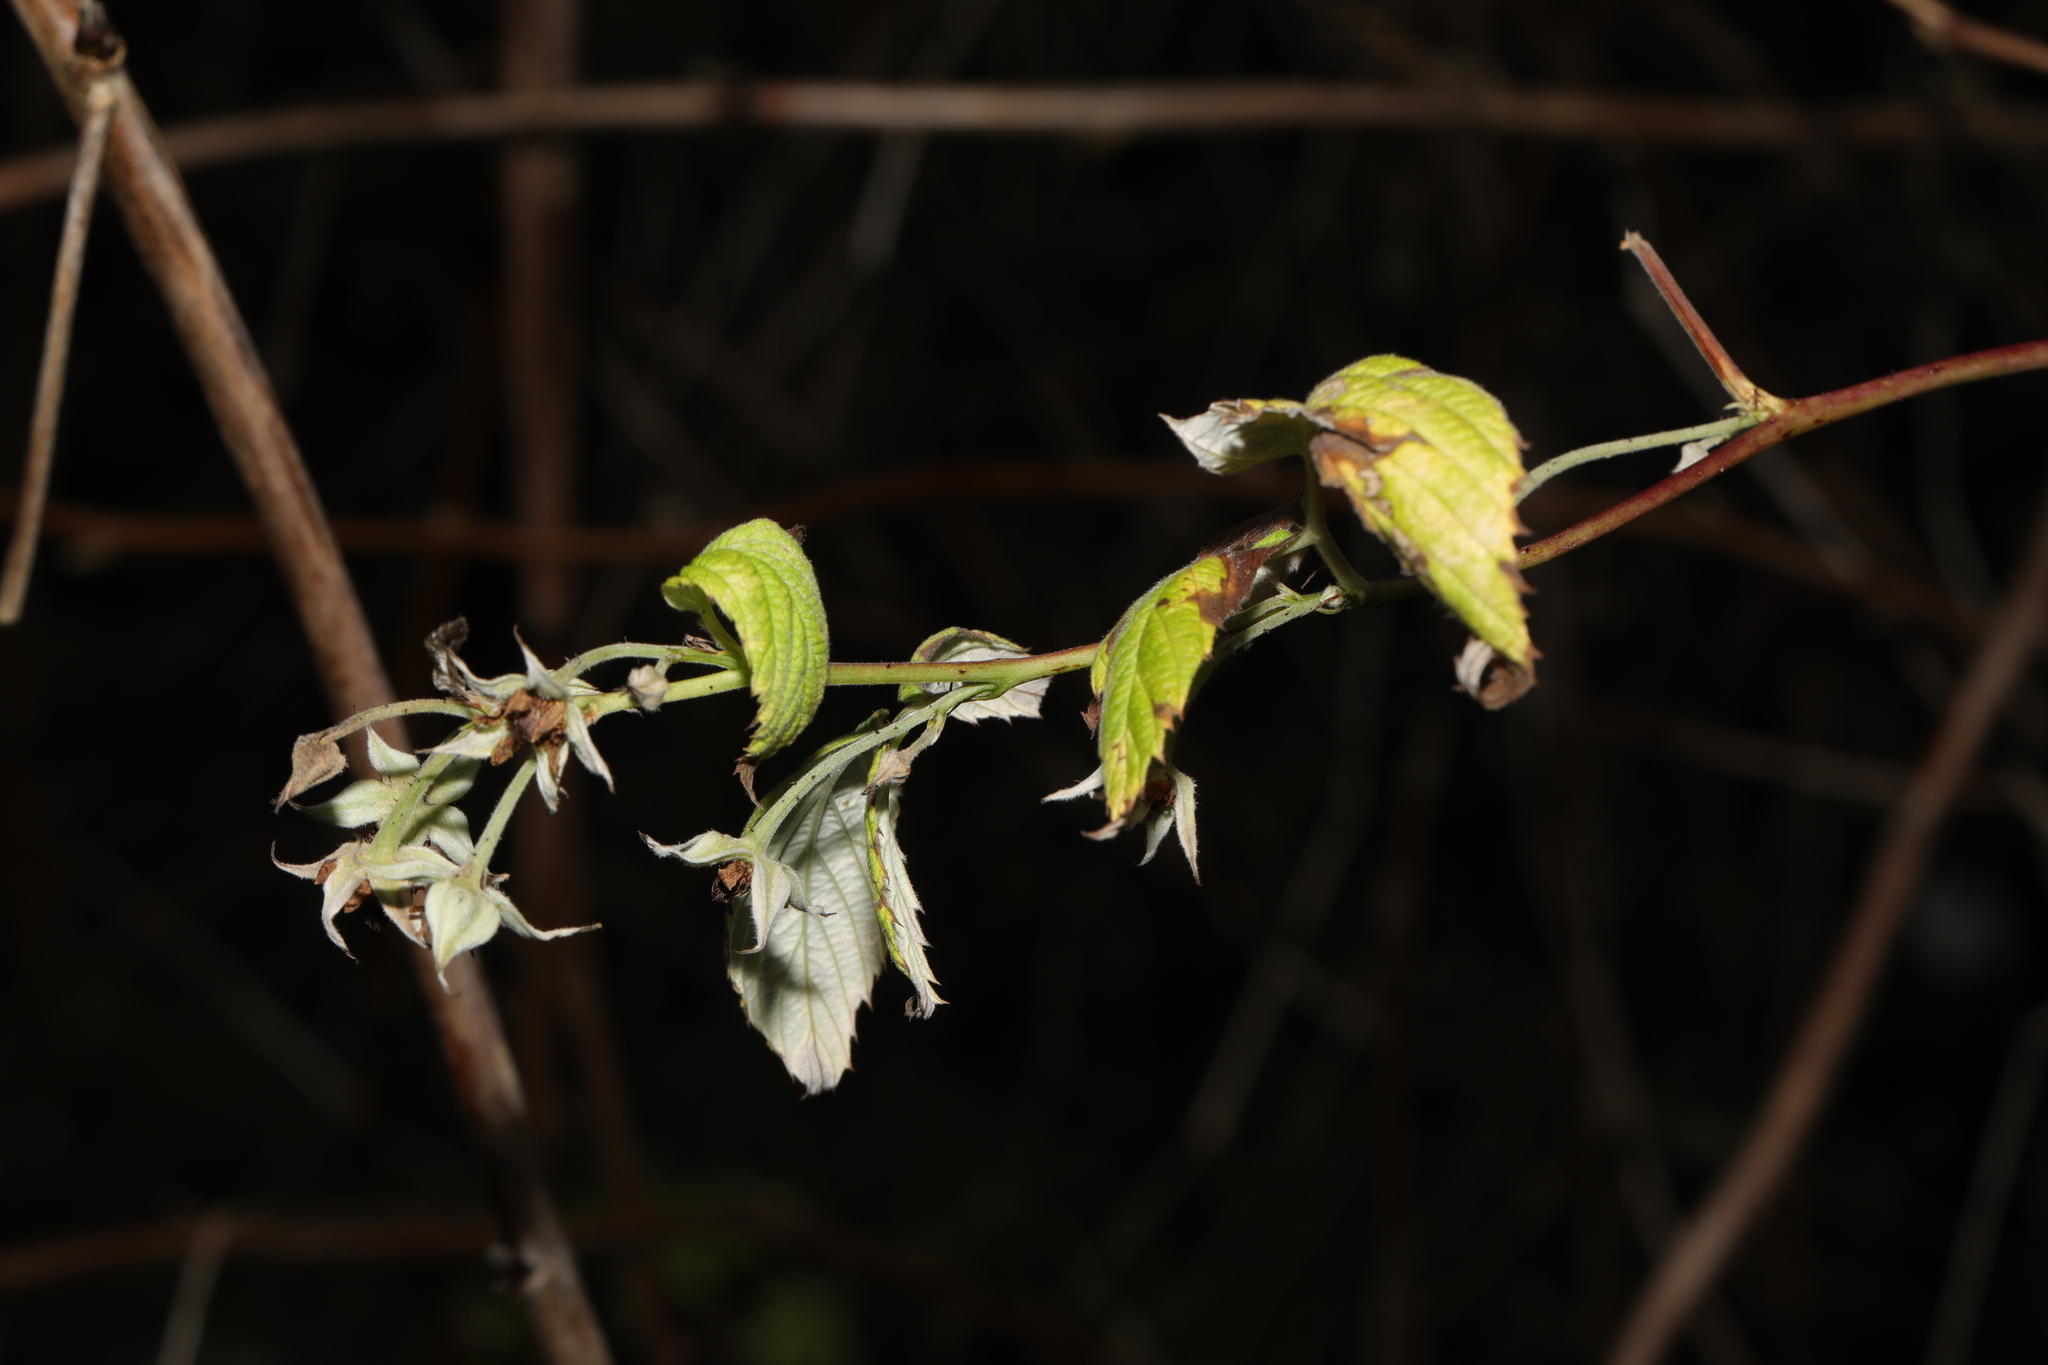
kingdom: Plantae
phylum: Tracheophyta
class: Magnoliopsida
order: Rosales
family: Rosaceae
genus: Rubus
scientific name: Rubus idaeus
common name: Raspberry
